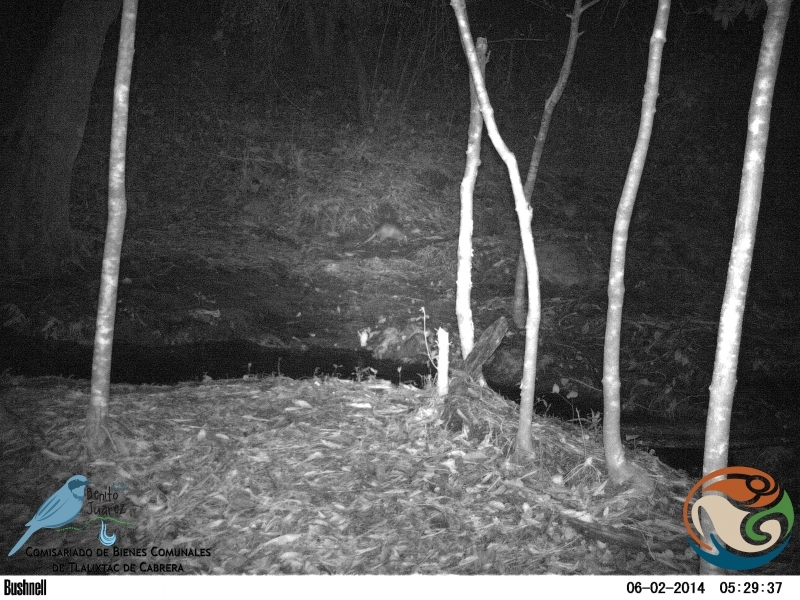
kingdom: Animalia
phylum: Chordata
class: Mammalia
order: Cingulata
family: Dasypodidae
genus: Dasypus
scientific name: Dasypus novemcinctus
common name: Nine-banded armadillo
